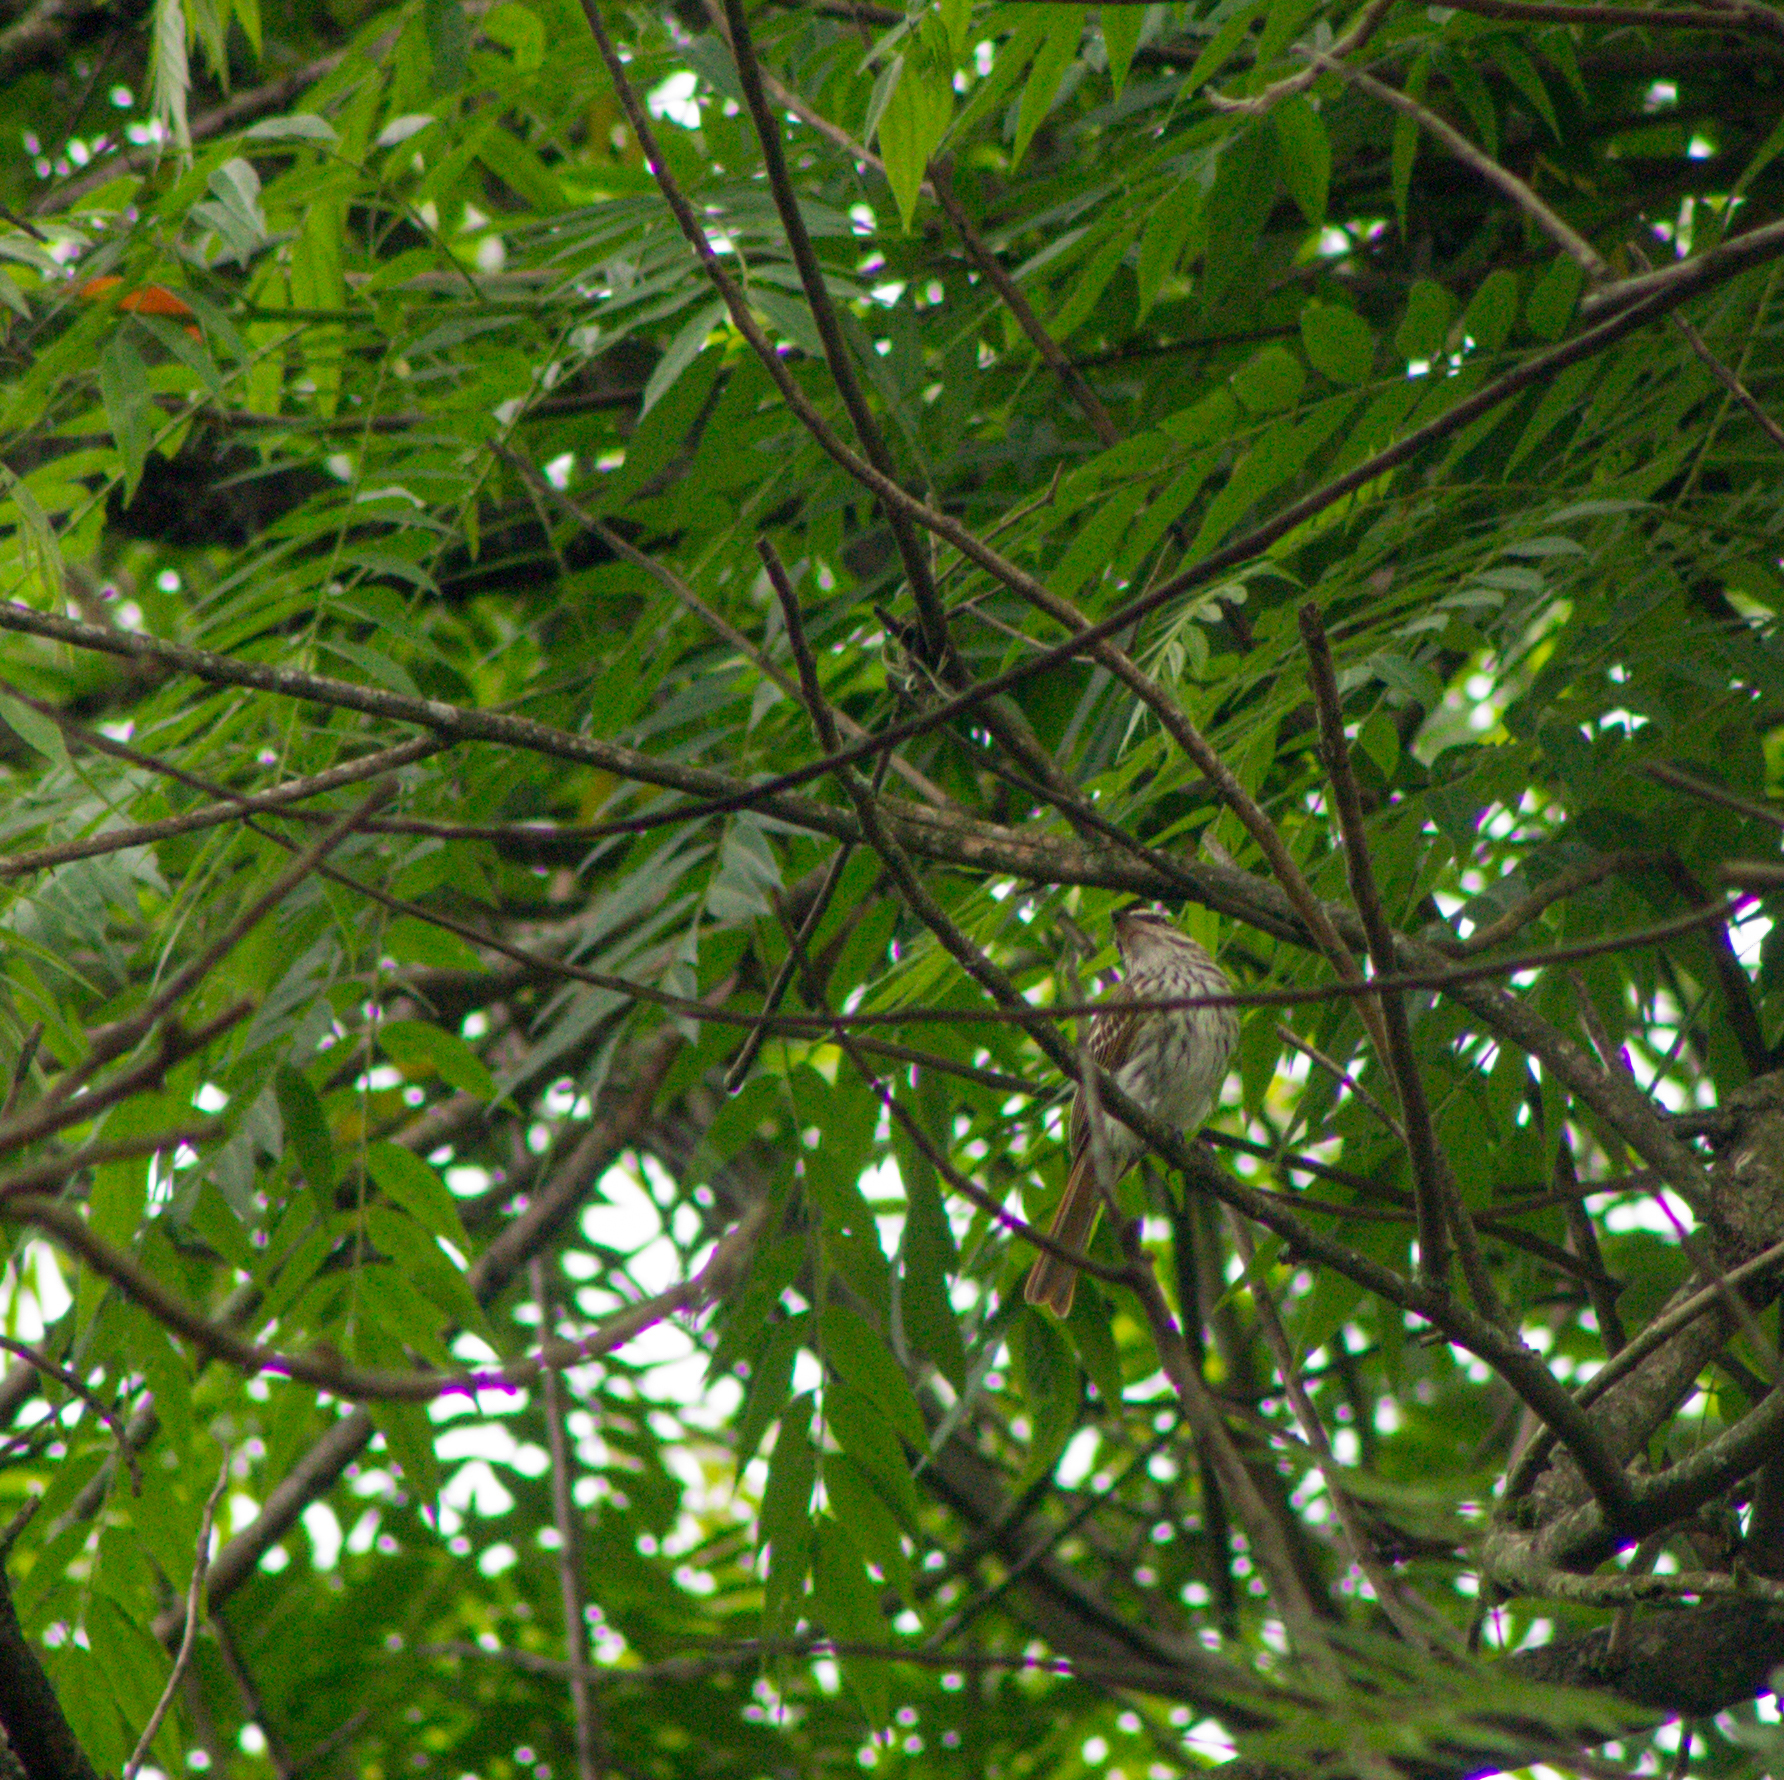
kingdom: Animalia
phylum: Chordata
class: Aves
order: Passeriformes
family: Tyrannidae
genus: Myiodynastes
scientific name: Myiodynastes maculatus
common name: Streaked flycatcher
